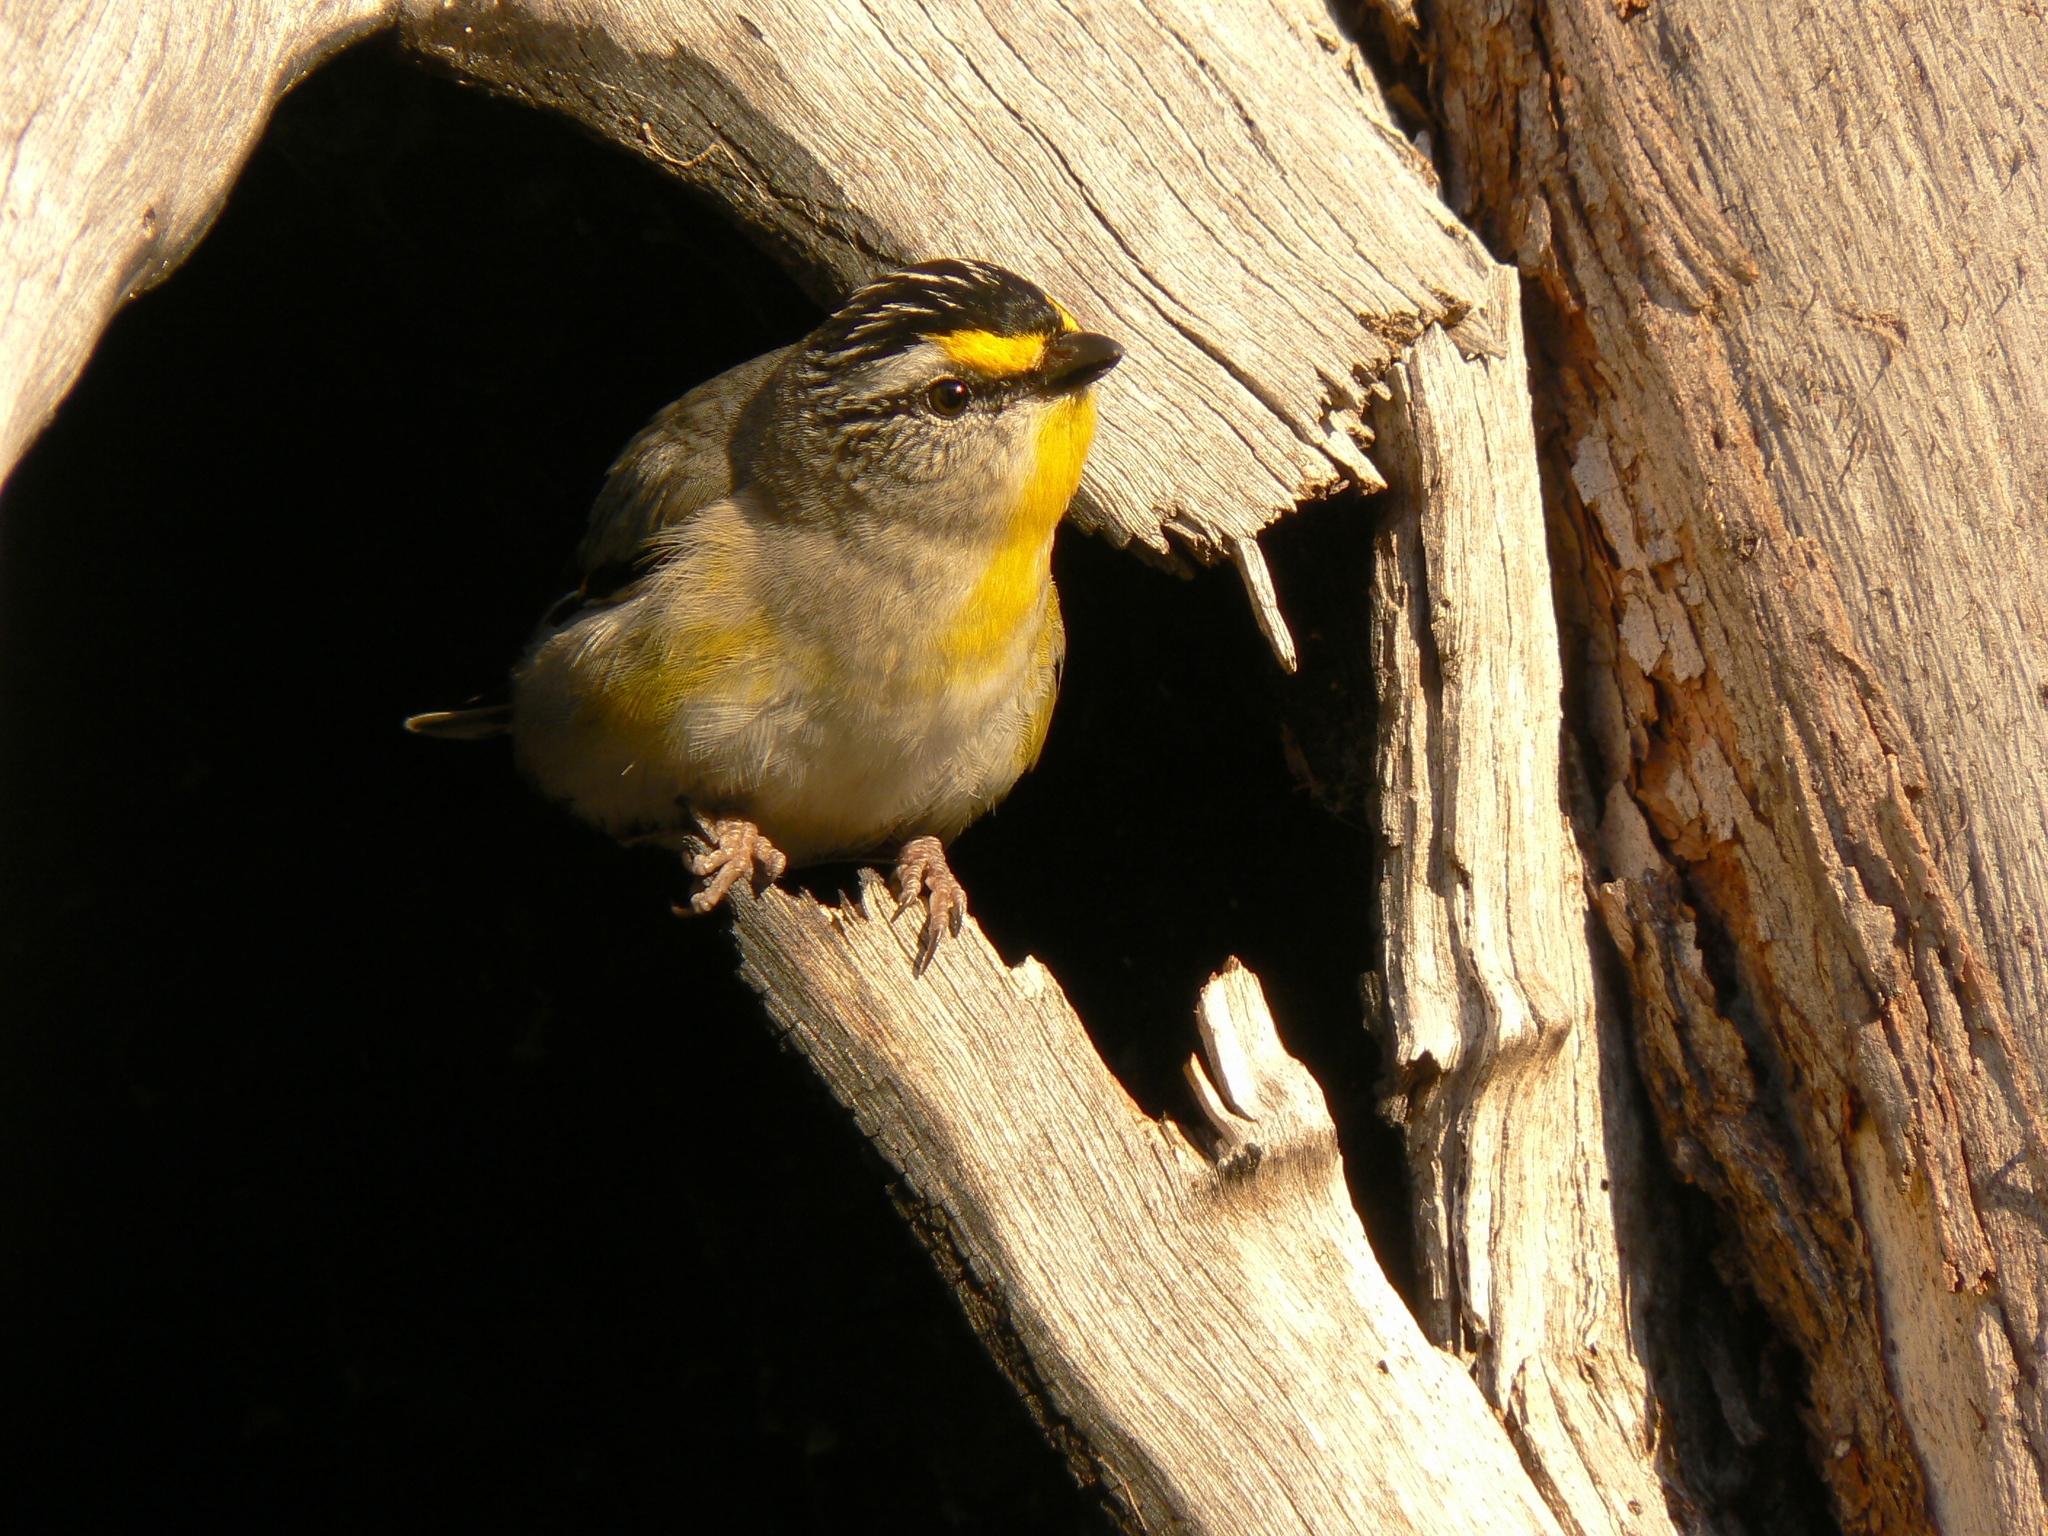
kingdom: Animalia
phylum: Chordata
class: Aves
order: Passeriformes
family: Pardalotidae
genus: Pardalotus
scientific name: Pardalotus striatus
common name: Striated pardalote
